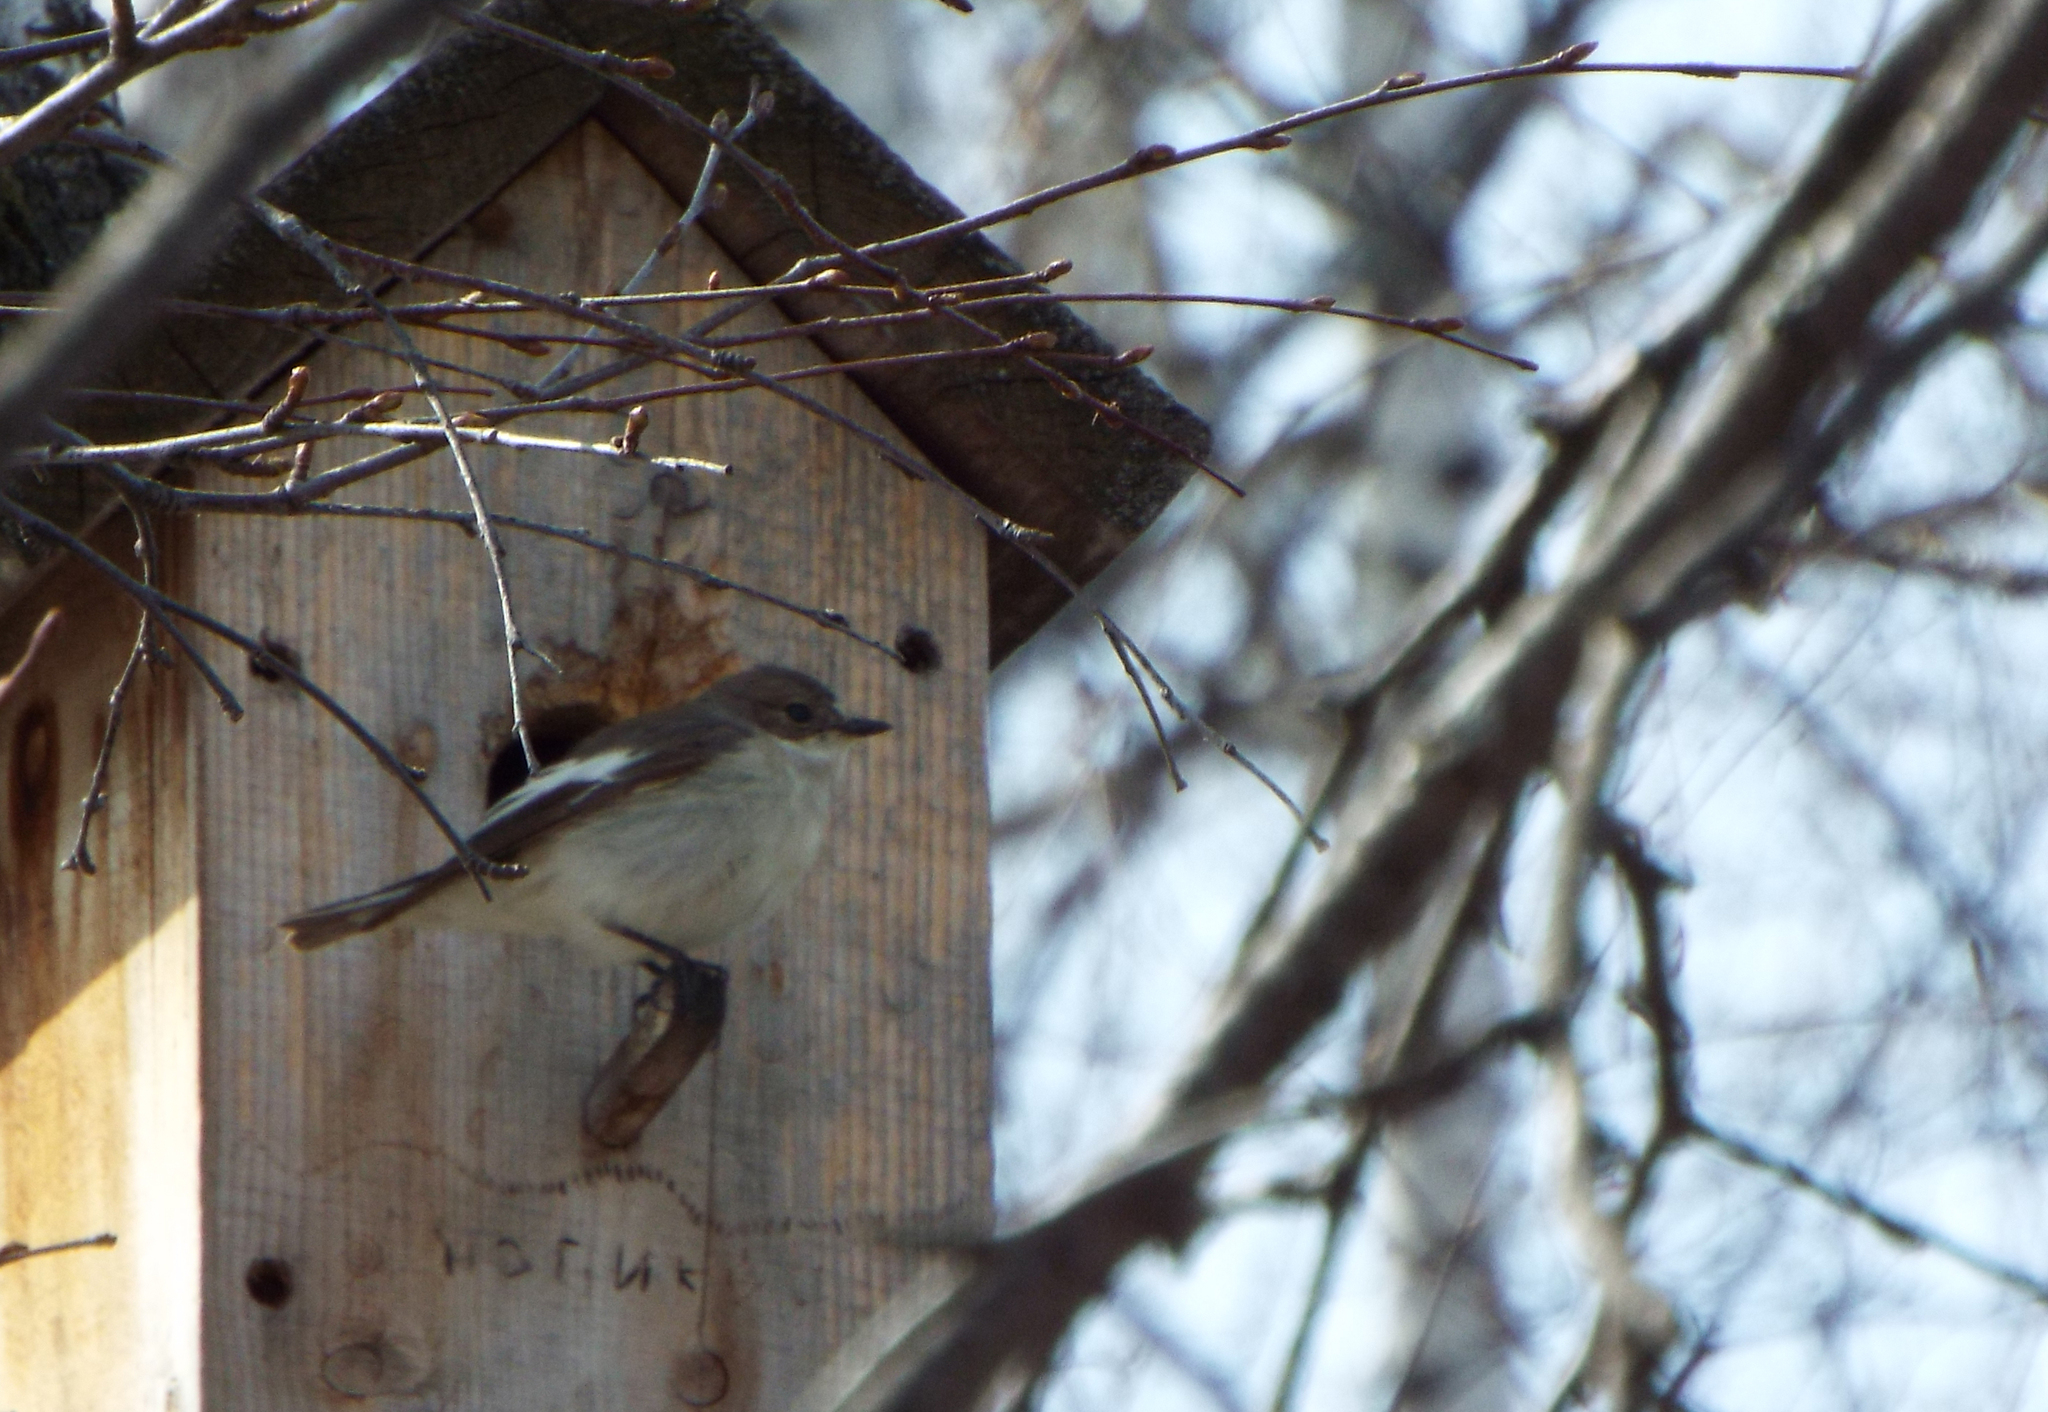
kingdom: Animalia
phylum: Chordata
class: Aves
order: Passeriformes
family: Muscicapidae
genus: Ficedula
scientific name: Ficedula hypoleuca
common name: European pied flycatcher
